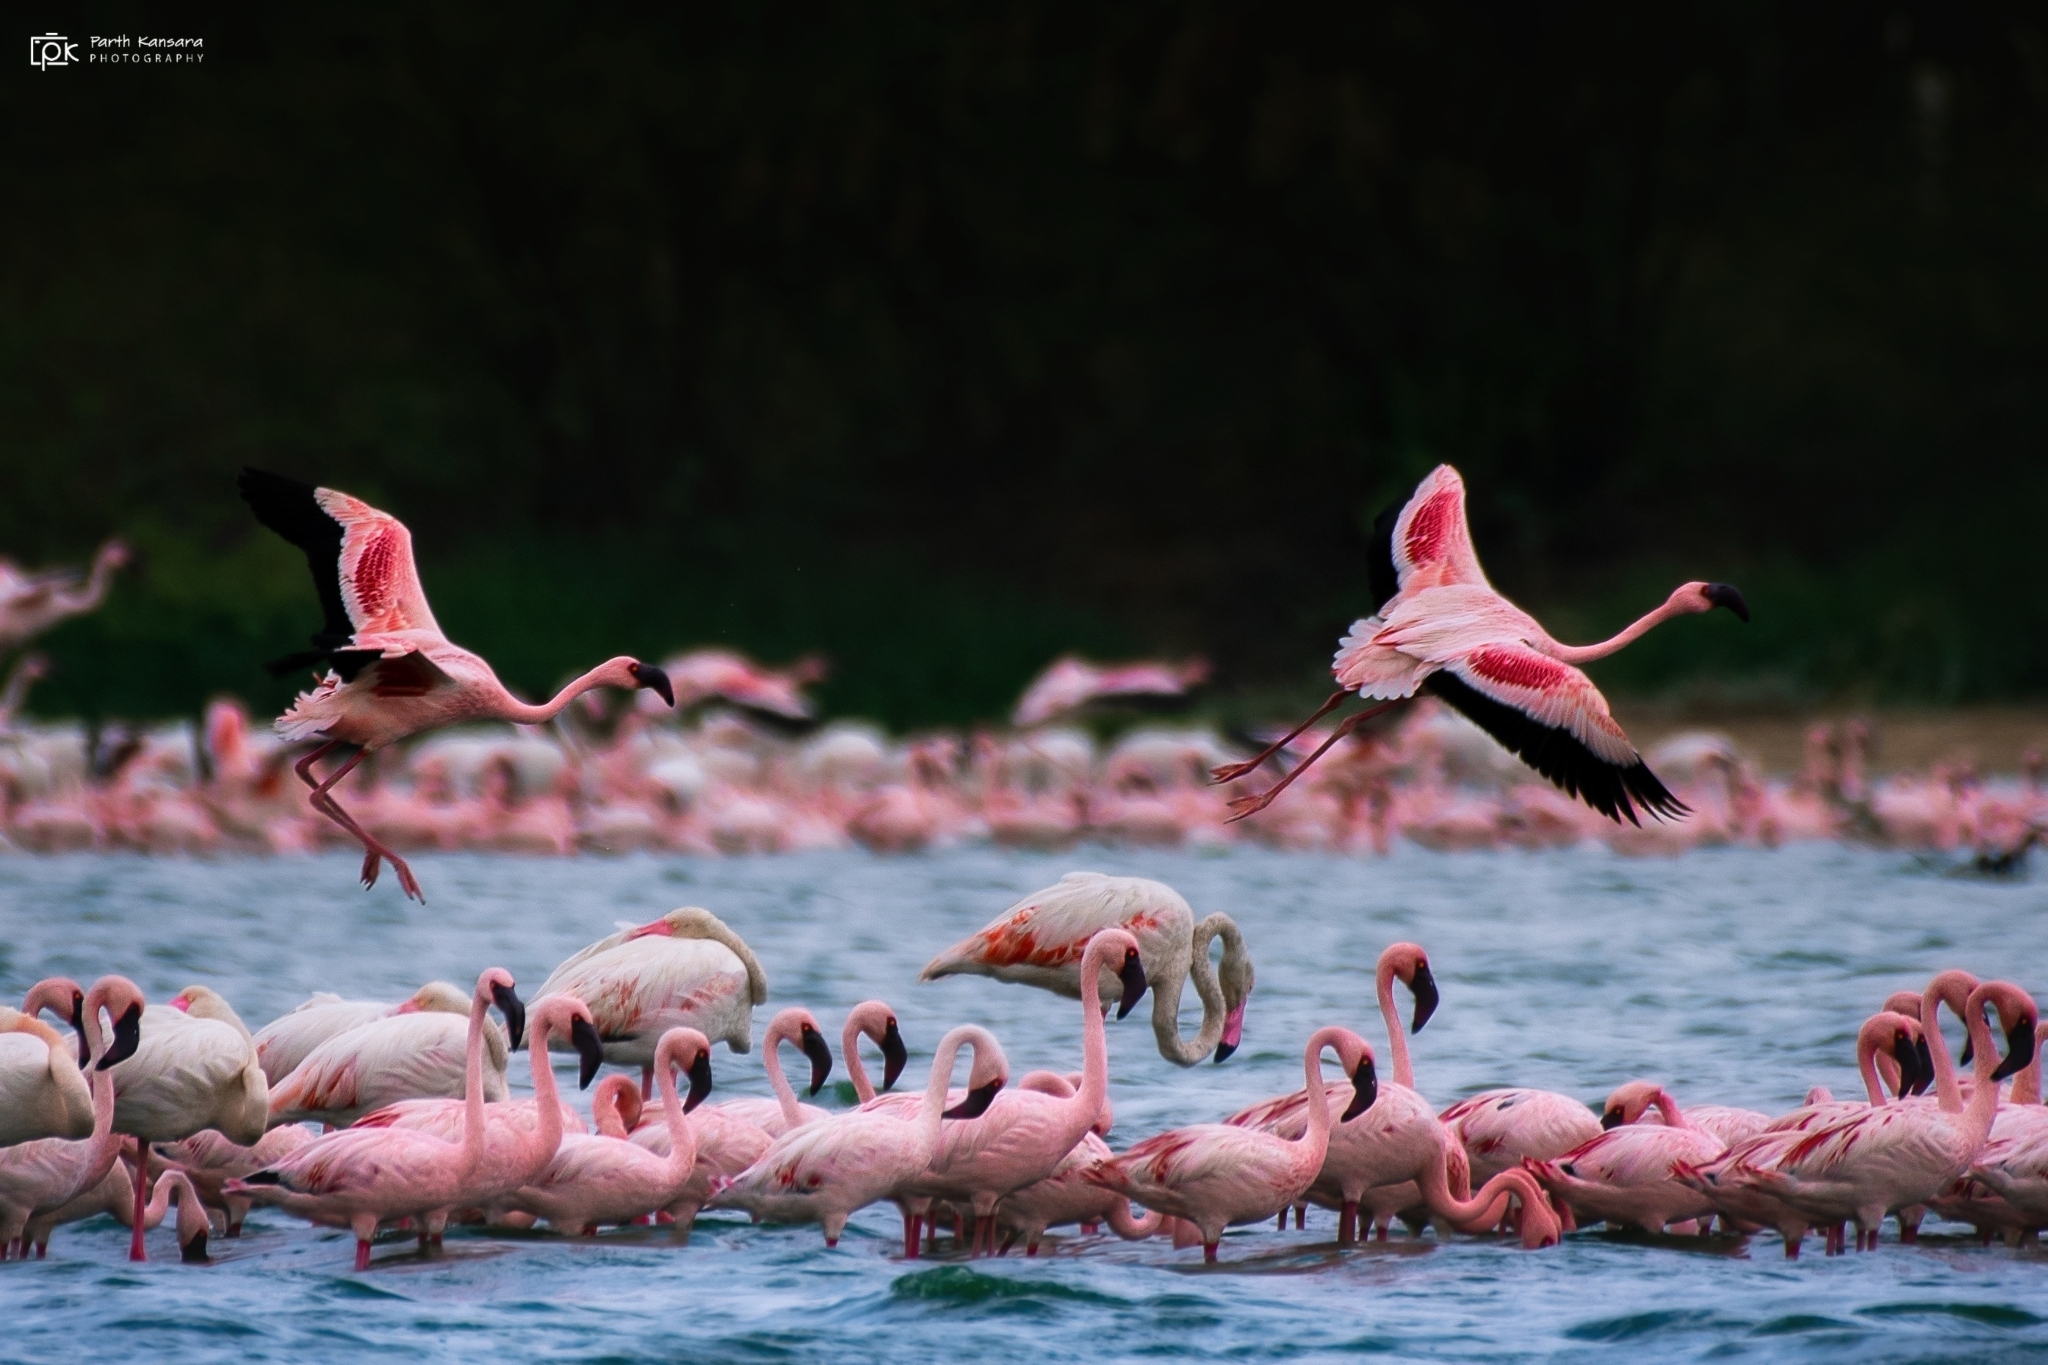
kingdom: Animalia
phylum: Chordata
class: Aves
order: Phoenicopteriformes
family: Phoenicopteridae
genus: Phoeniconaias
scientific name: Phoeniconaias minor
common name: Lesser flamingo
